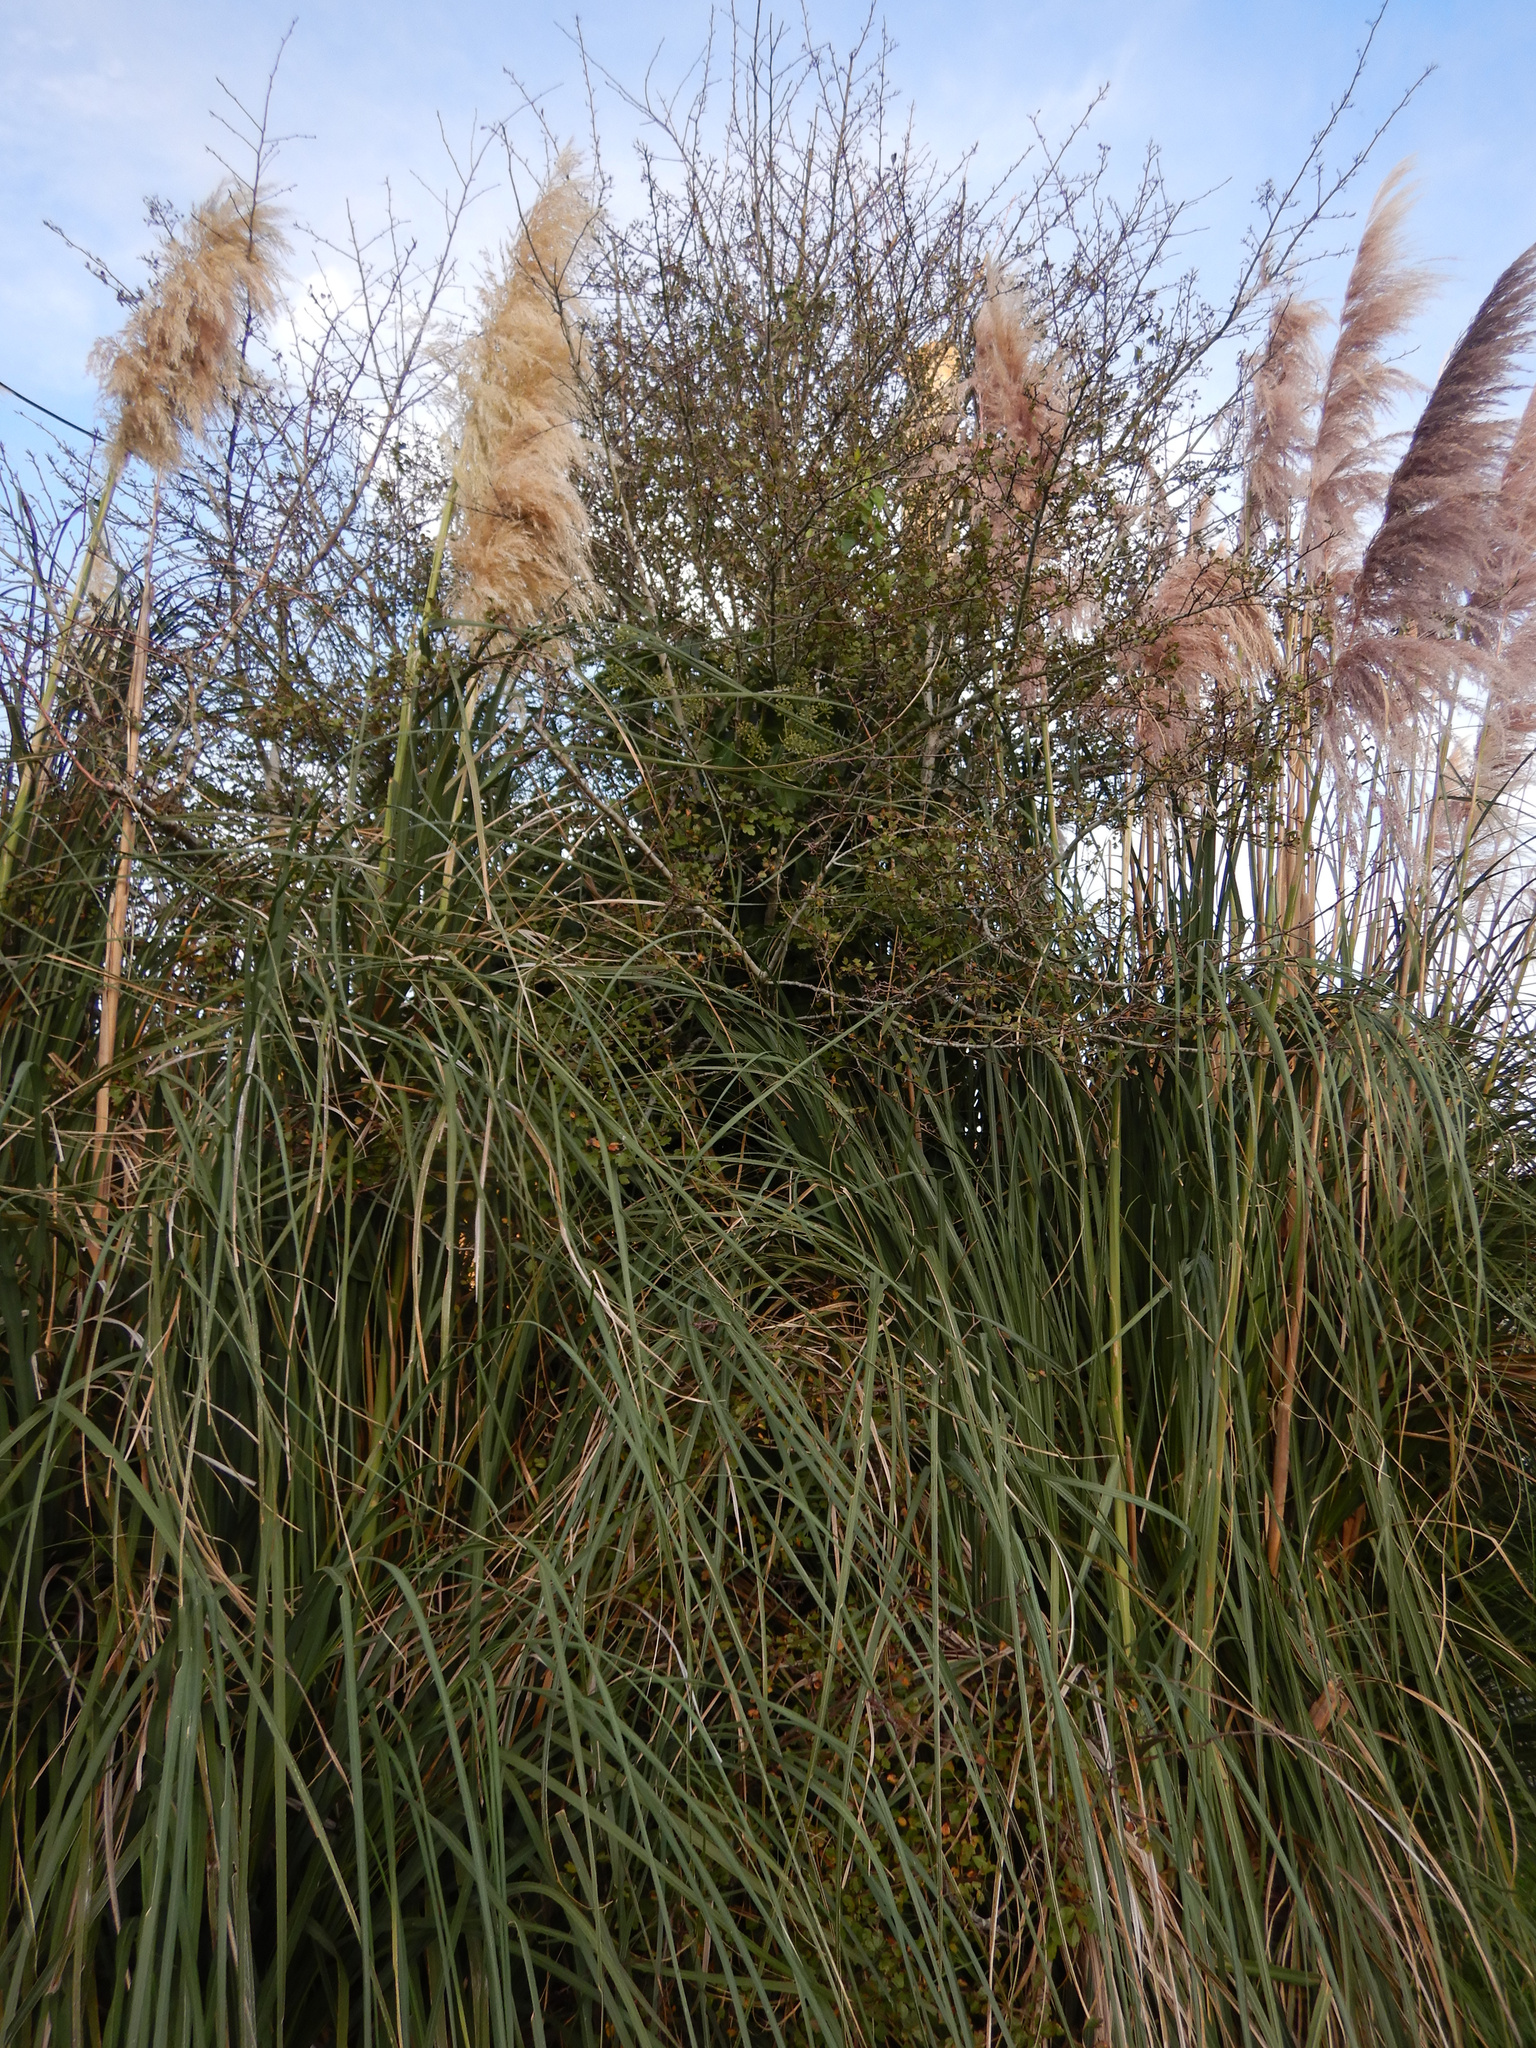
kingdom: Plantae
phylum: Tracheophyta
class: Magnoliopsida
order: Rosales
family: Rosaceae
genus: Crataegus
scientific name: Crataegus monogyna
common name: Hawthorn
